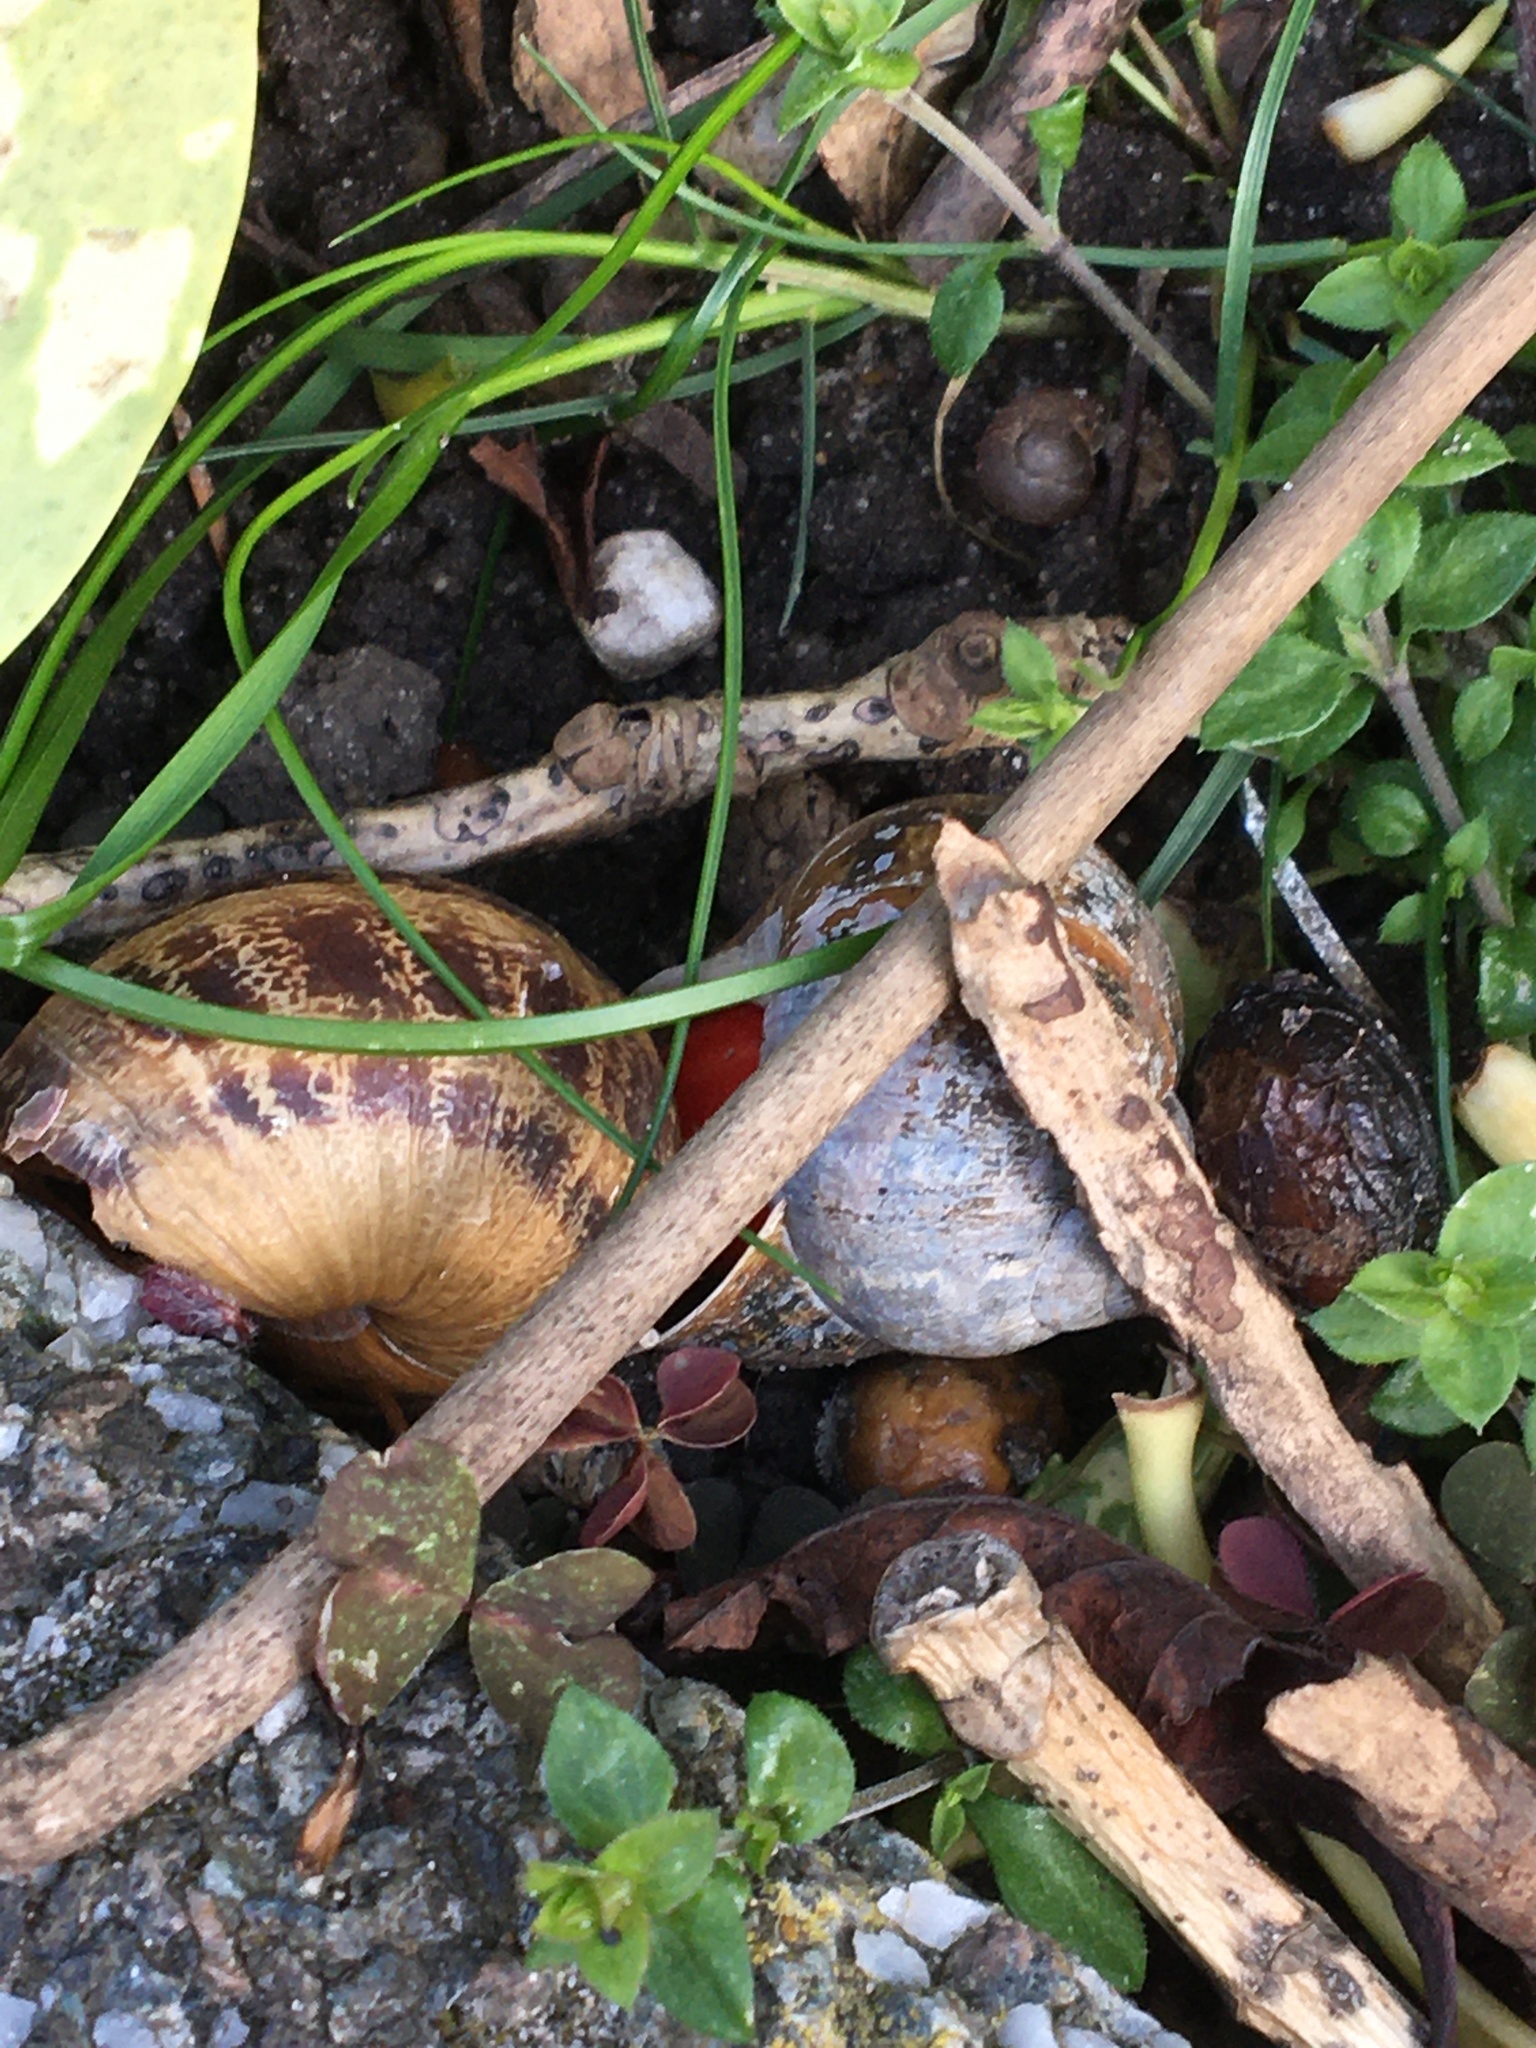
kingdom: Animalia
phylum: Mollusca
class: Gastropoda
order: Stylommatophora
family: Helicidae
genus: Cornu
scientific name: Cornu aspersum
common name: Brown garden snail
